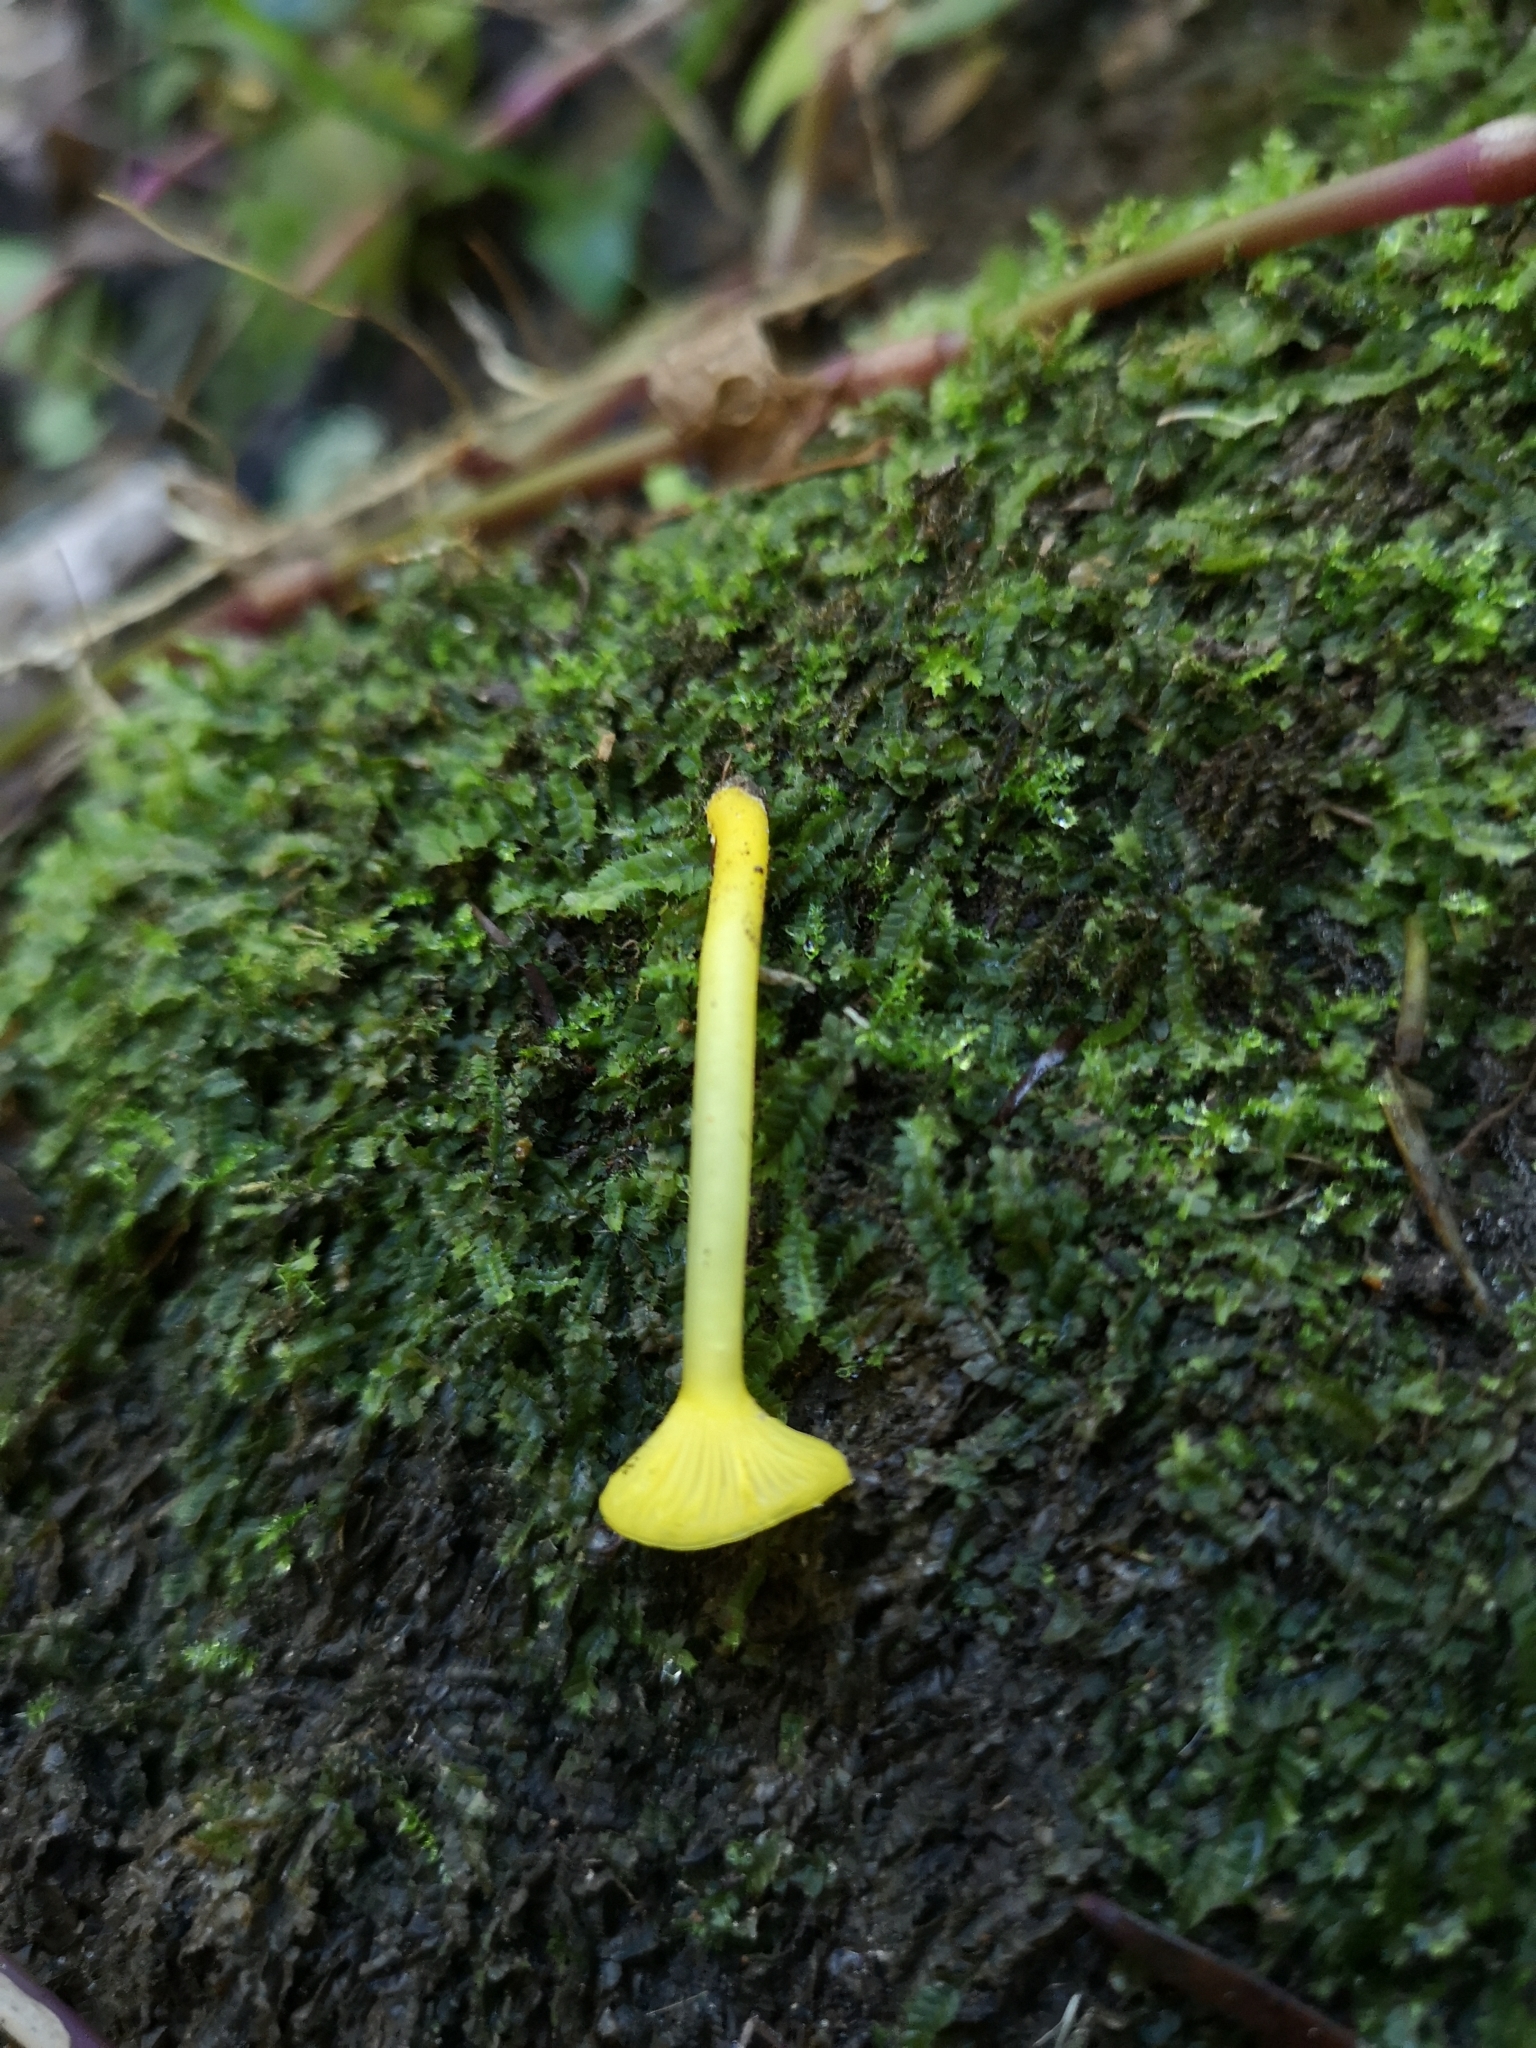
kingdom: Fungi
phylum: Basidiomycota
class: Agaricomycetes
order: Agaricales
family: Hygrophoraceae
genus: Gloioxanthomyces
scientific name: Gloioxanthomyces
